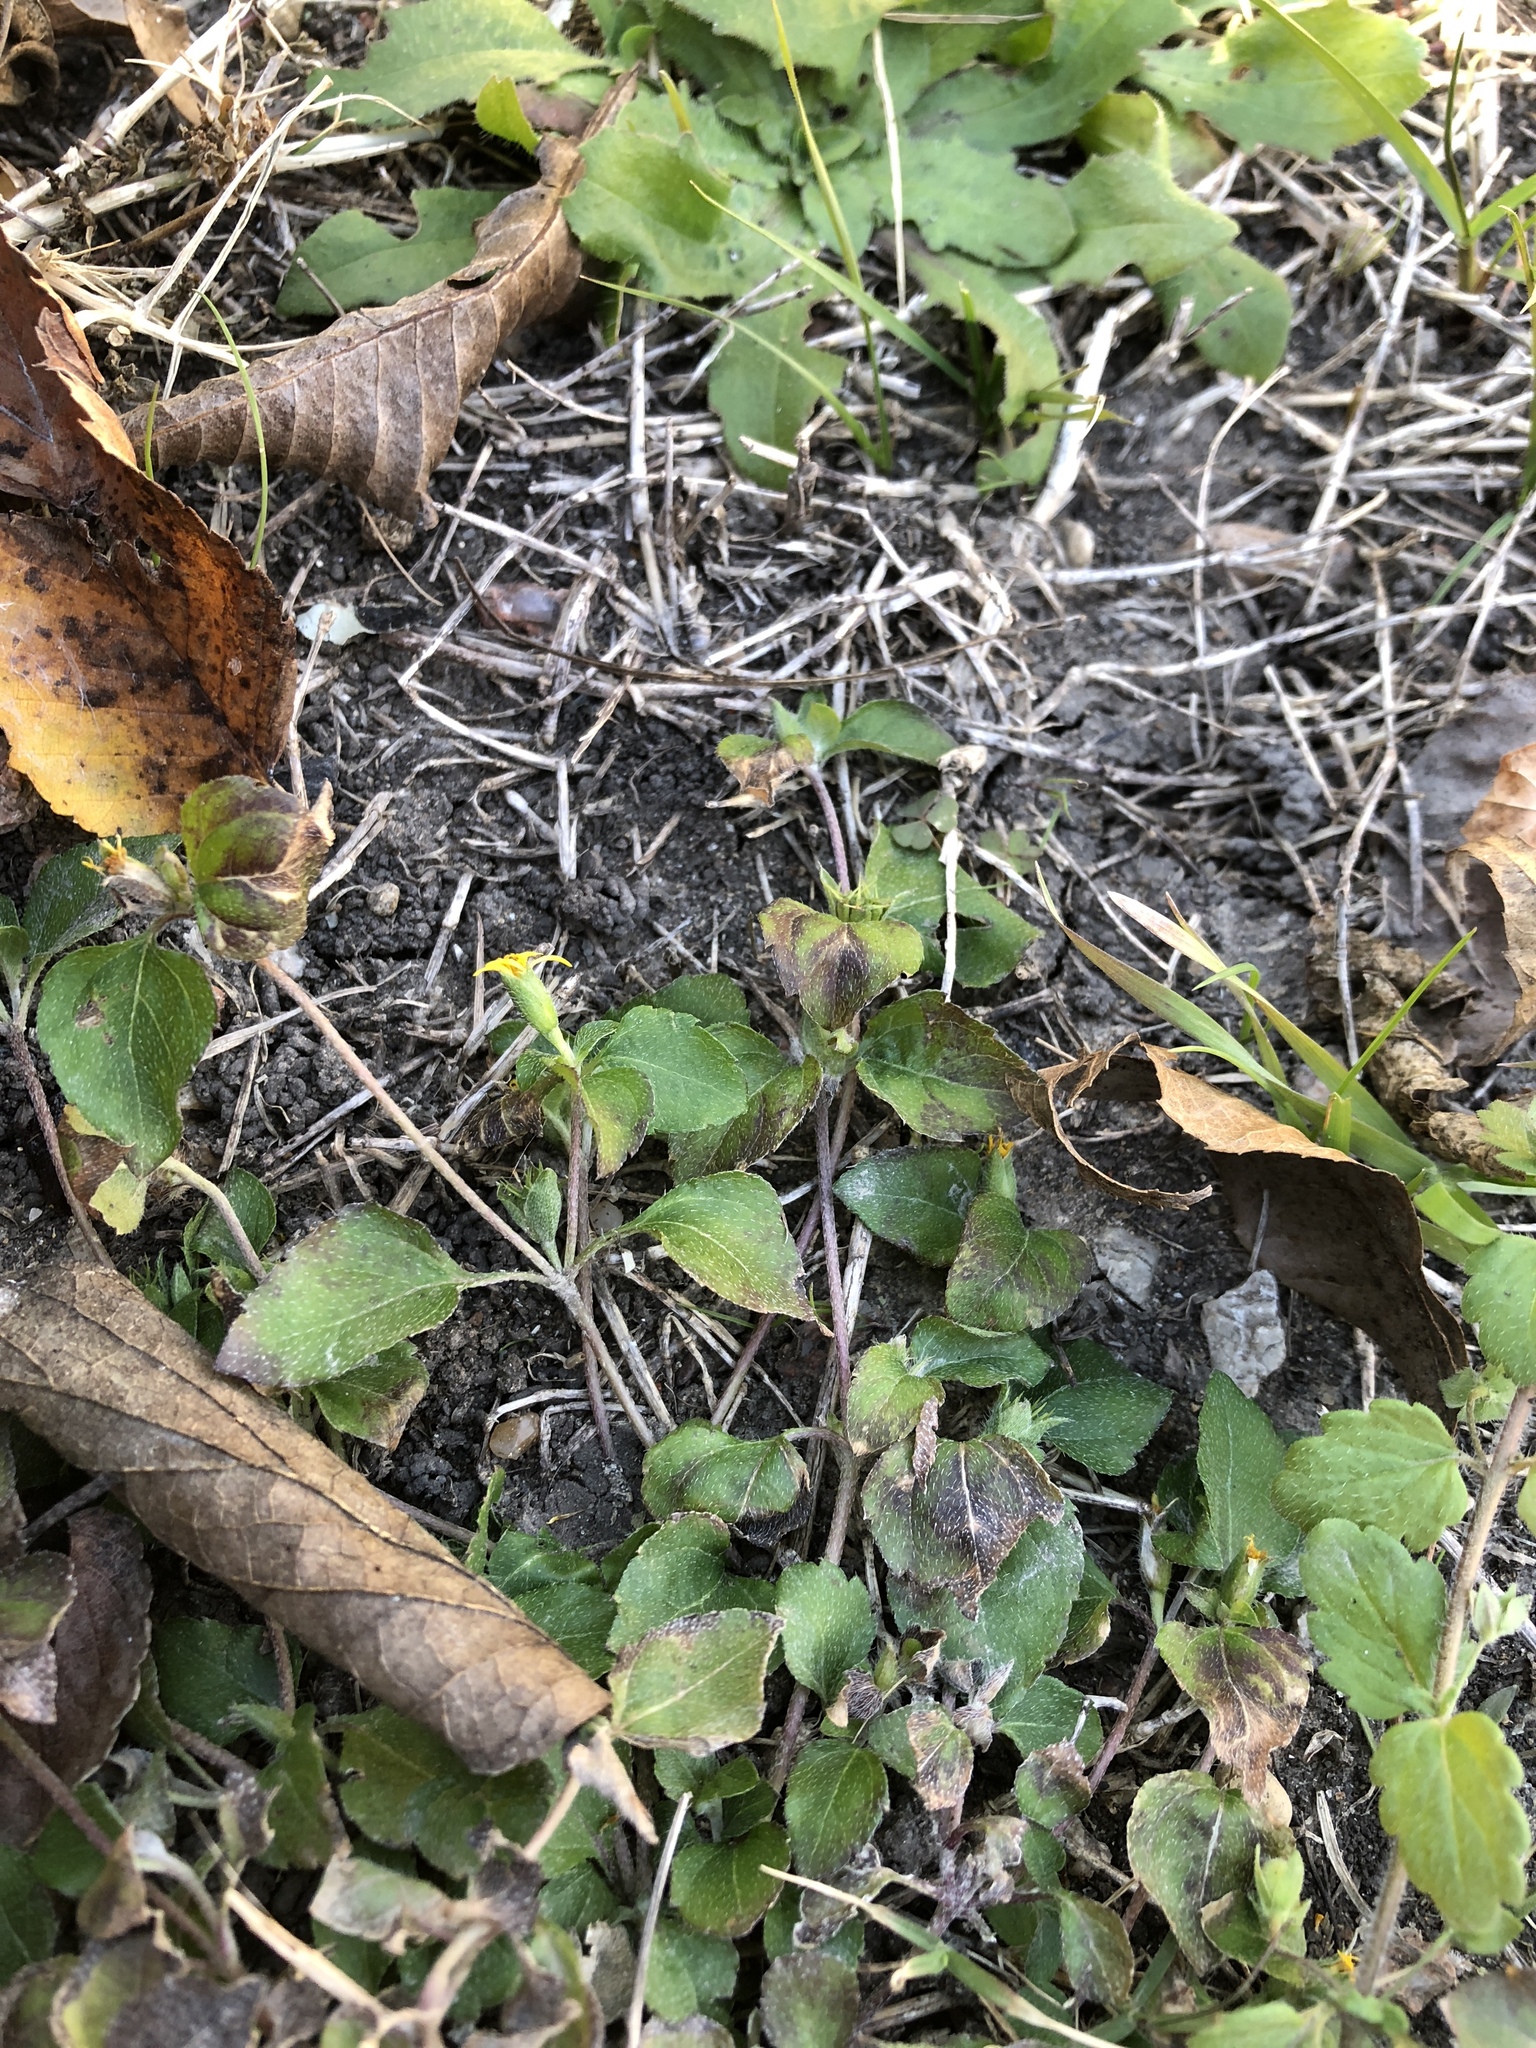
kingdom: Plantae
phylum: Tracheophyta
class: Magnoliopsida
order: Asterales
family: Asteraceae
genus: Calyptocarpus
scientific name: Calyptocarpus vialis
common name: Straggler daisy
